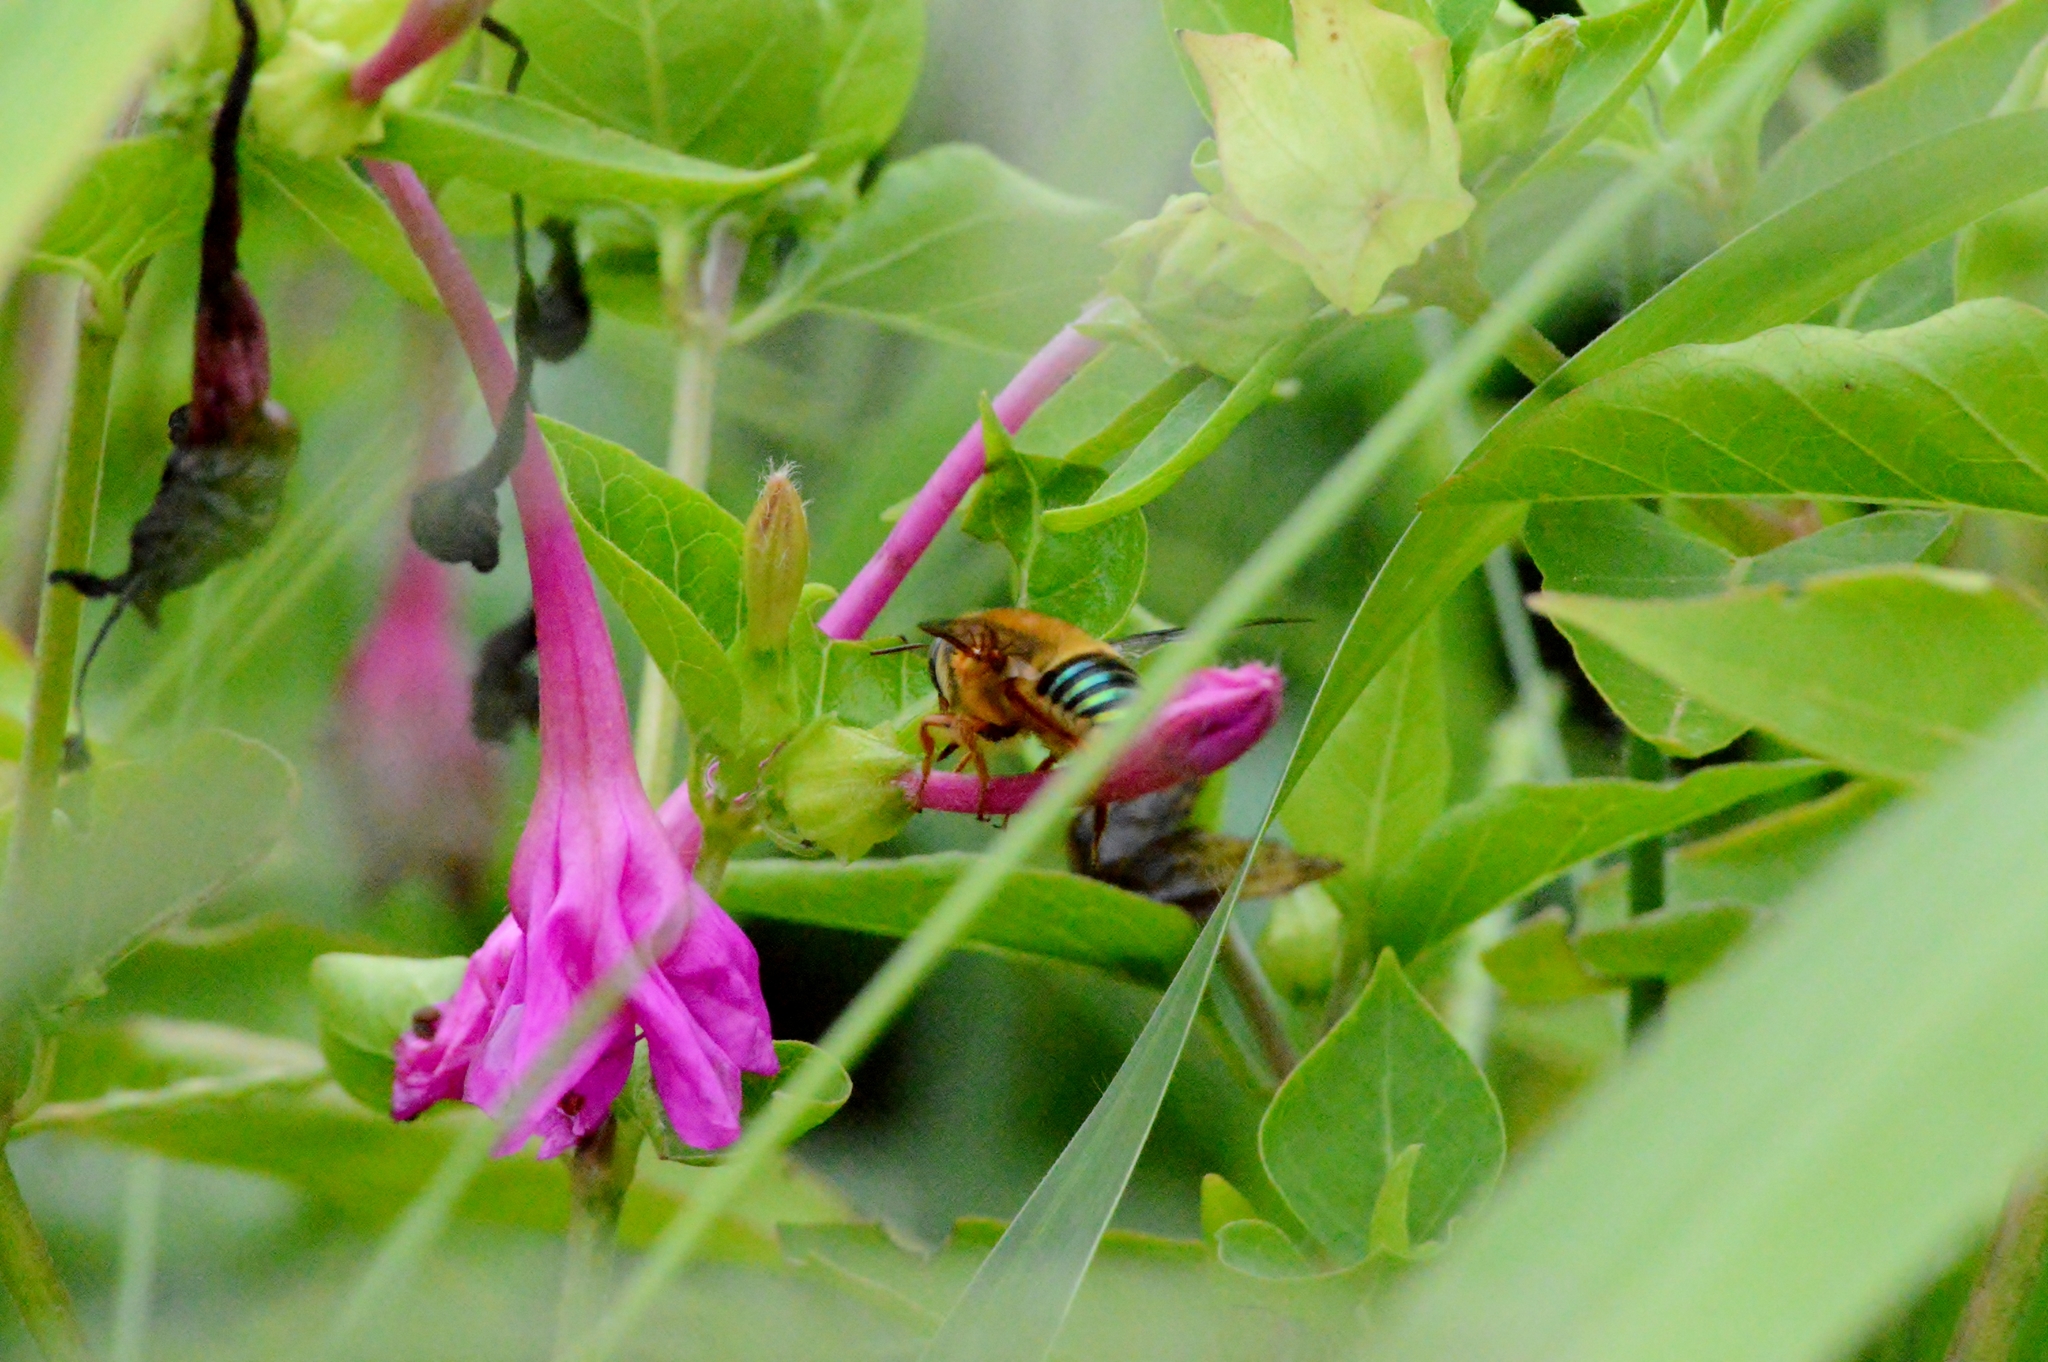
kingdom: Animalia
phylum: Arthropoda
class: Insecta
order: Hymenoptera
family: Andrenidae
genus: Oxaea
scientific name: Oxaea flavescens
